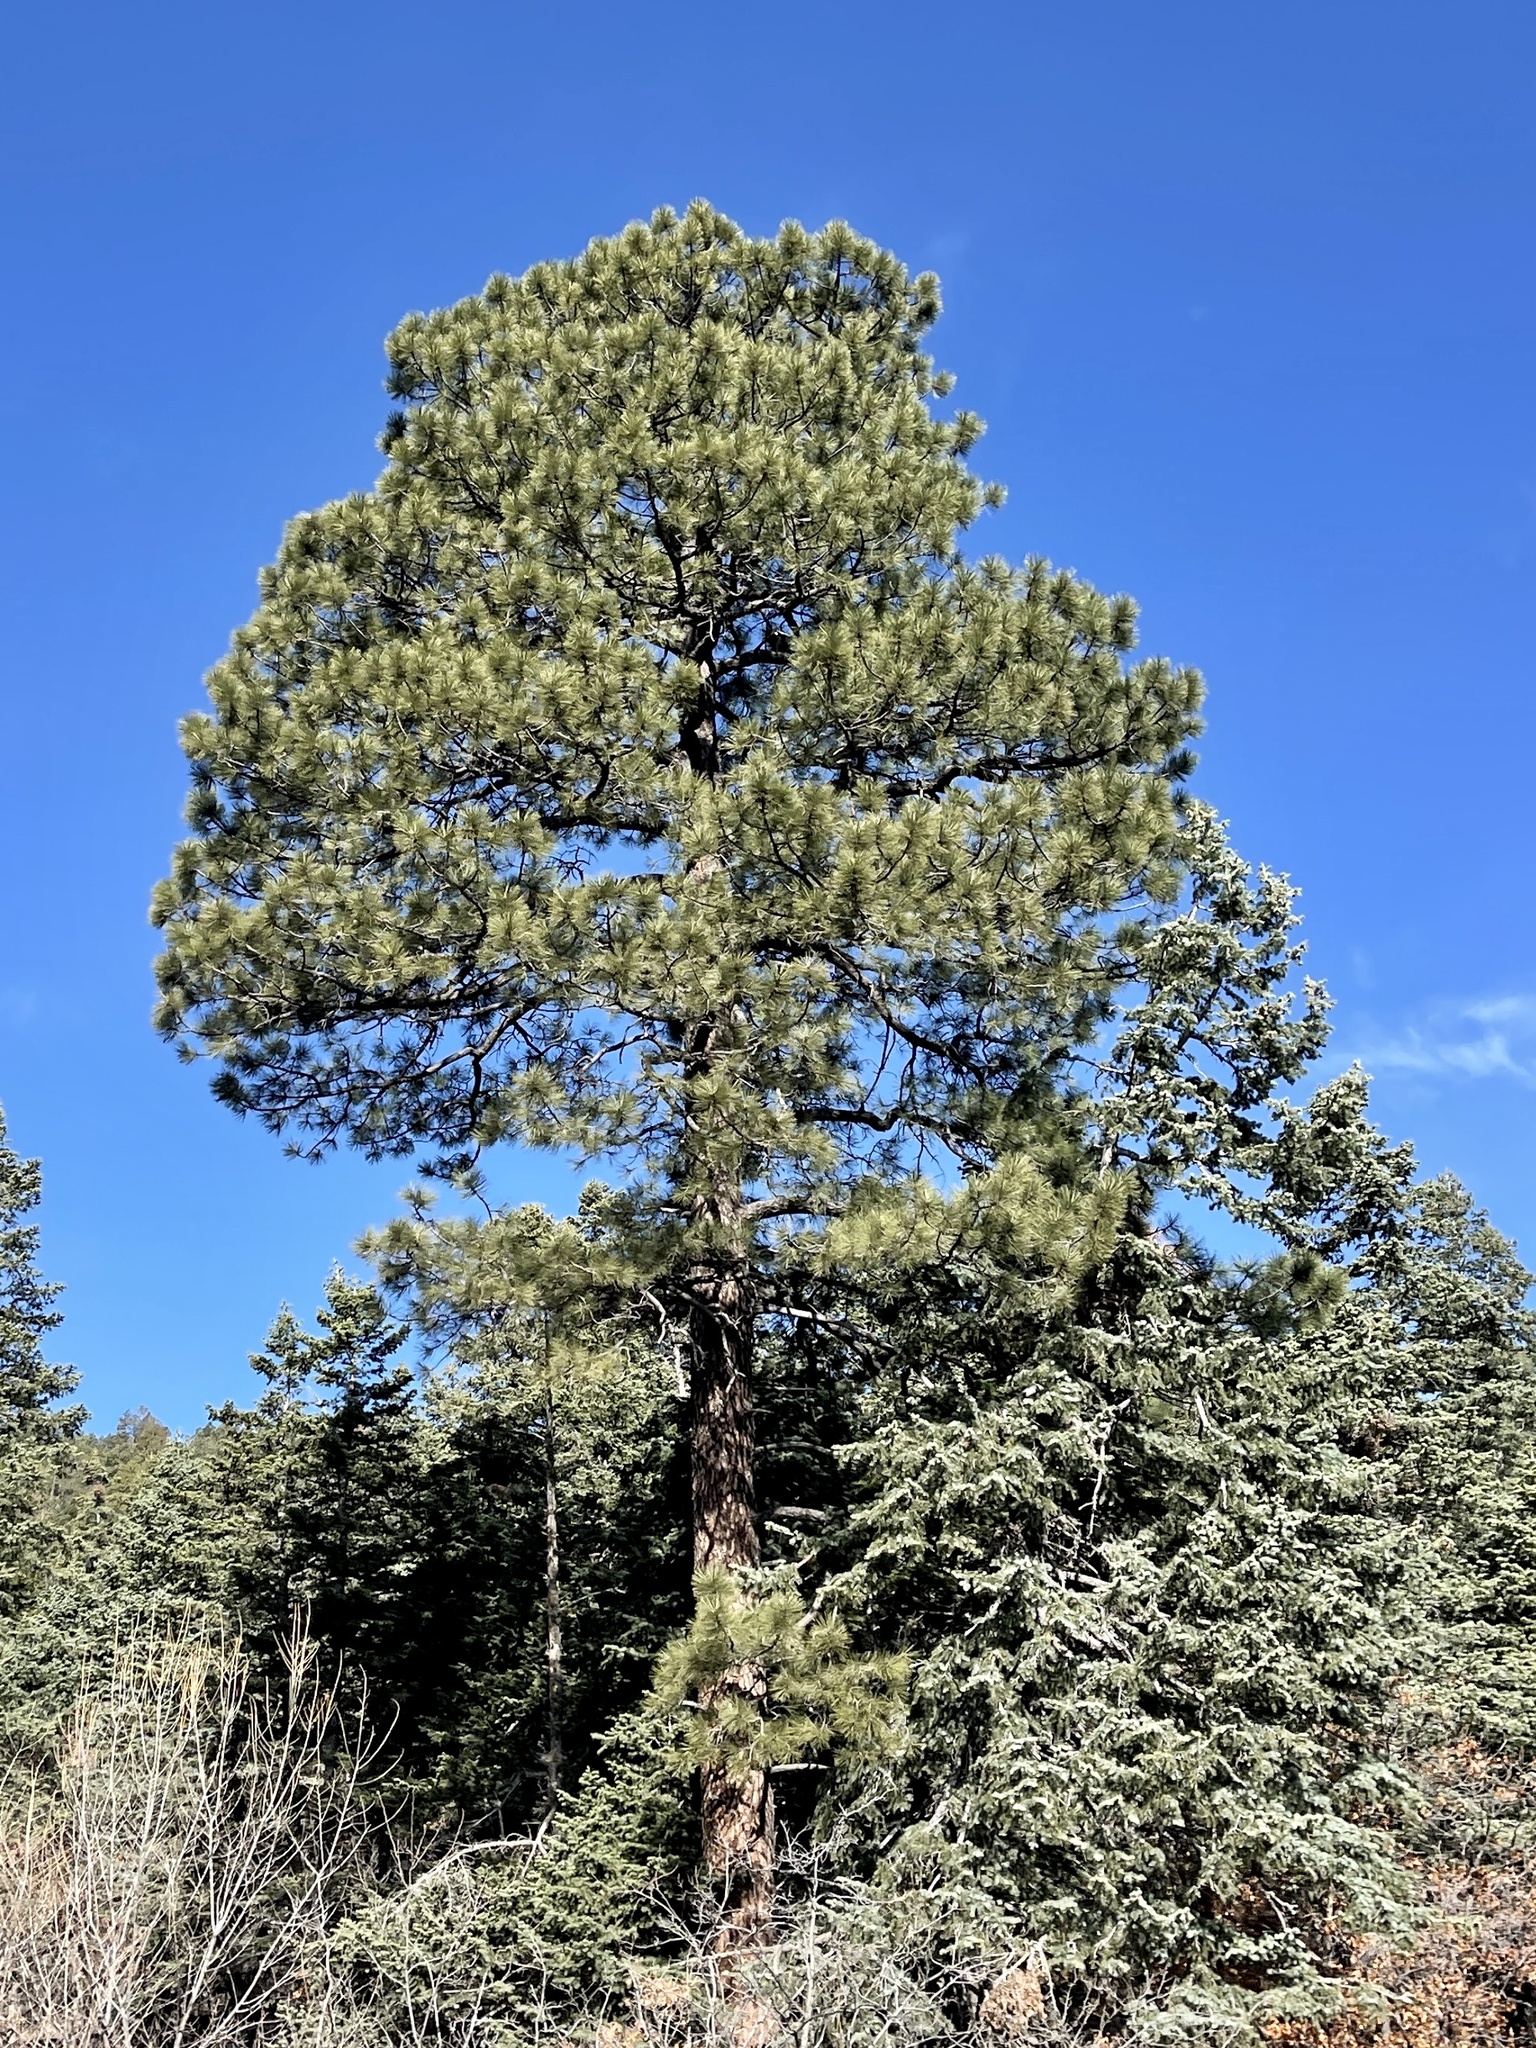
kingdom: Plantae
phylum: Tracheophyta
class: Pinopsida
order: Pinales
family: Pinaceae
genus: Pinus
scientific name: Pinus ponderosa
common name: Western yellow-pine
